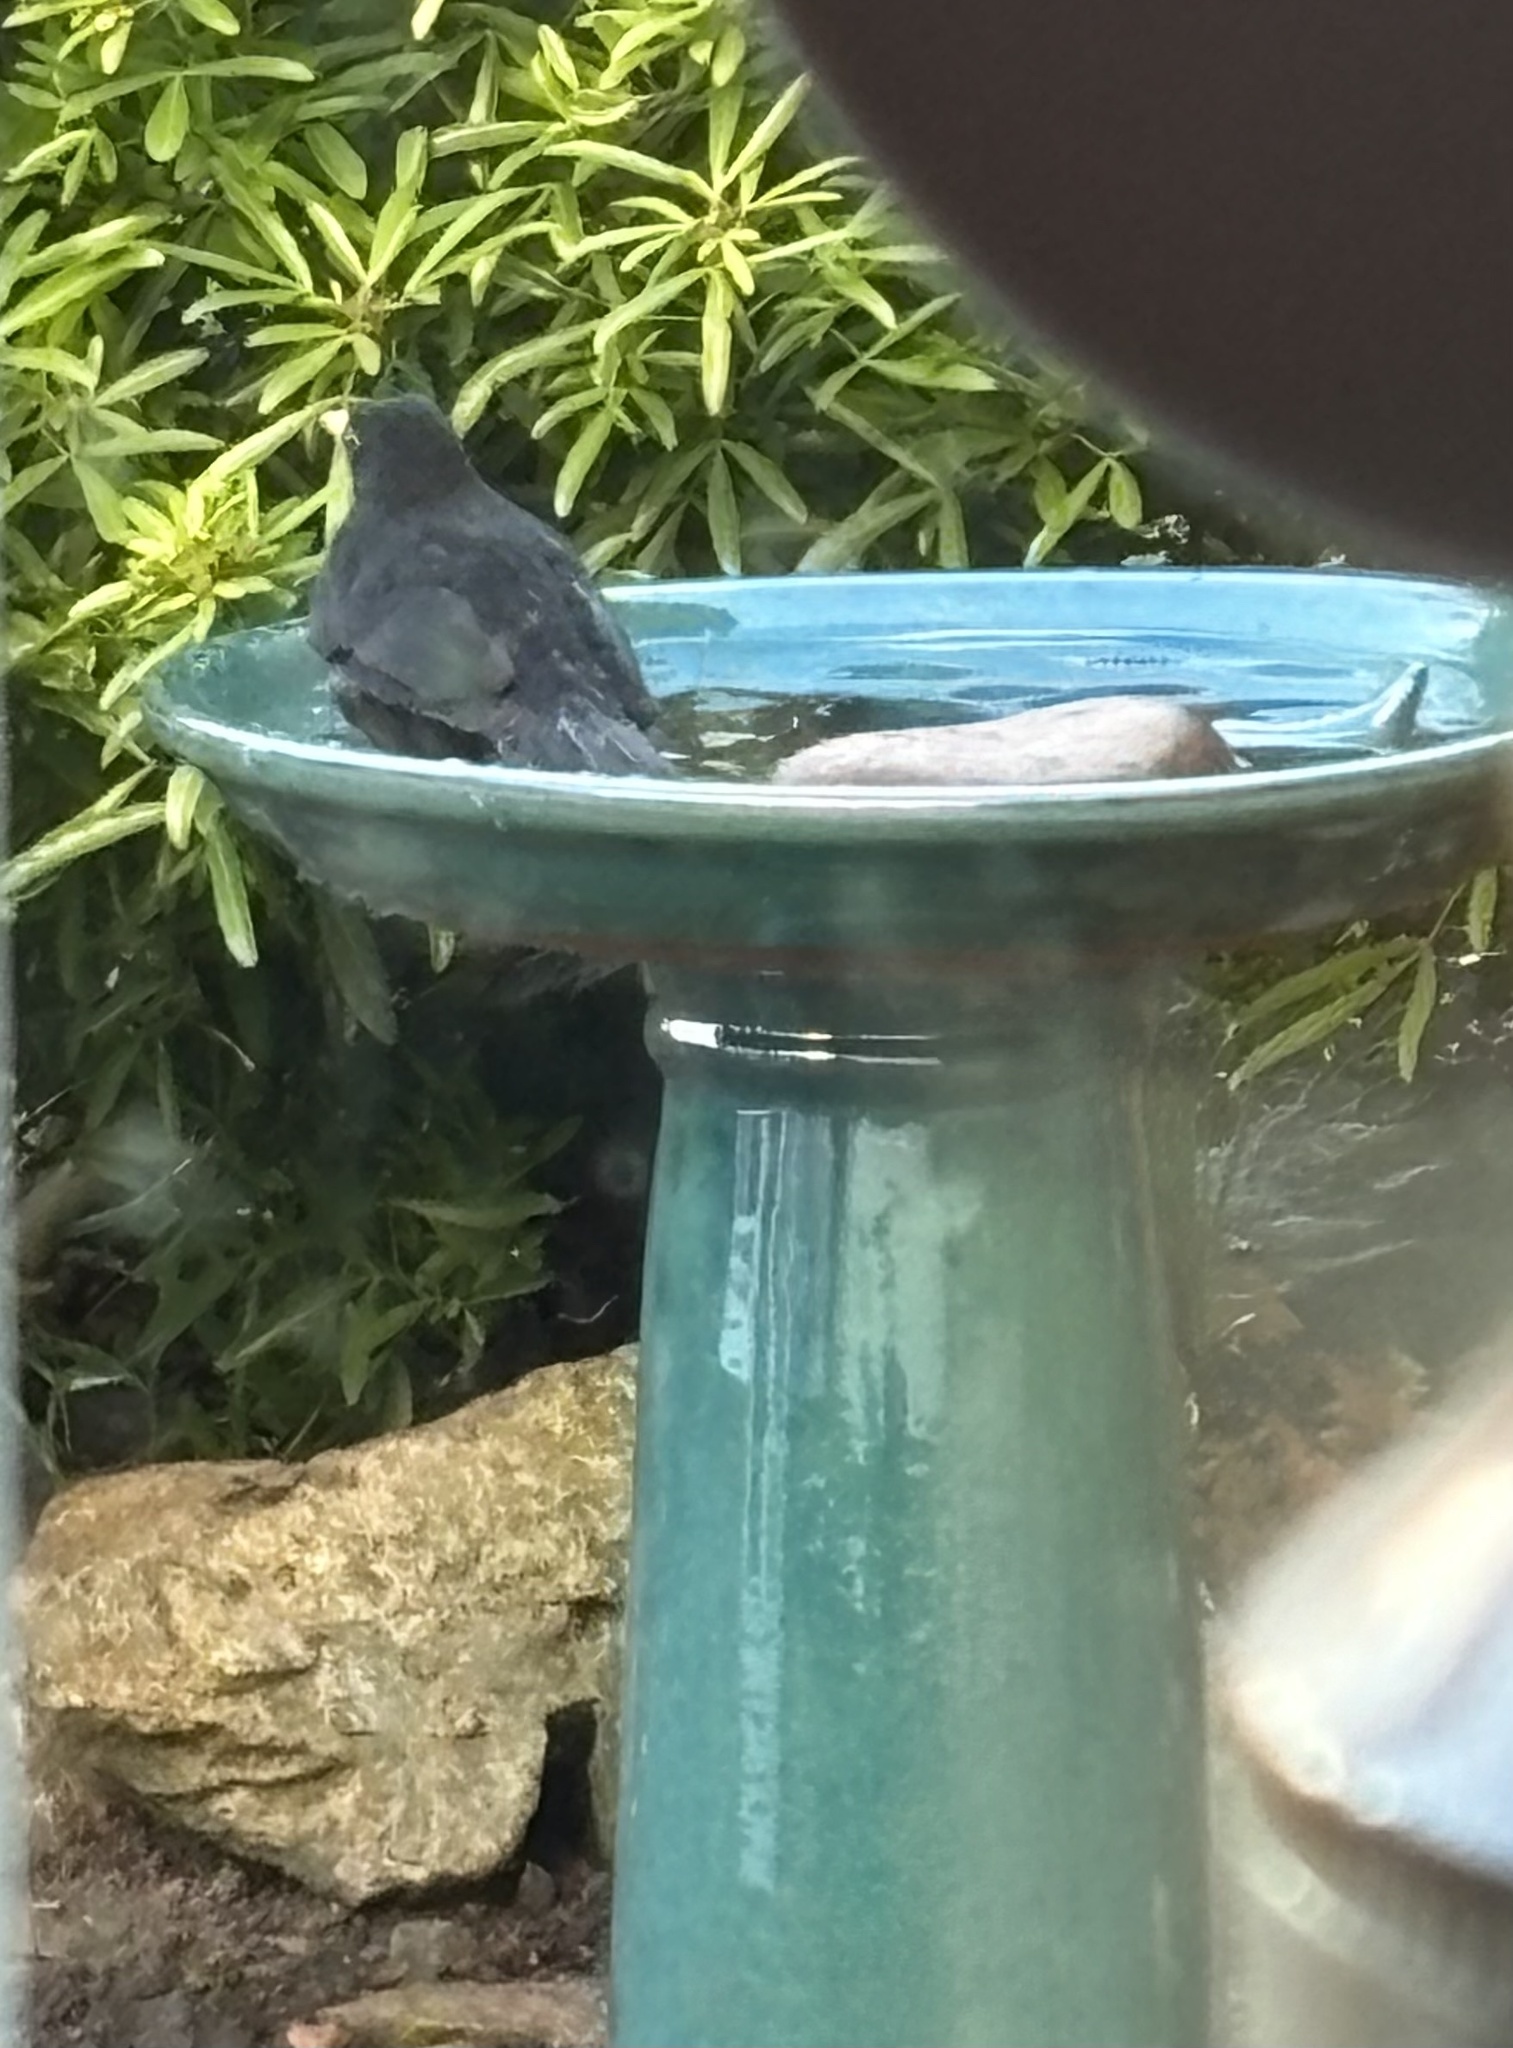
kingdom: Animalia
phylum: Chordata
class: Aves
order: Passeriformes
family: Turdidae
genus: Turdus
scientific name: Turdus merula
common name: Common blackbird
